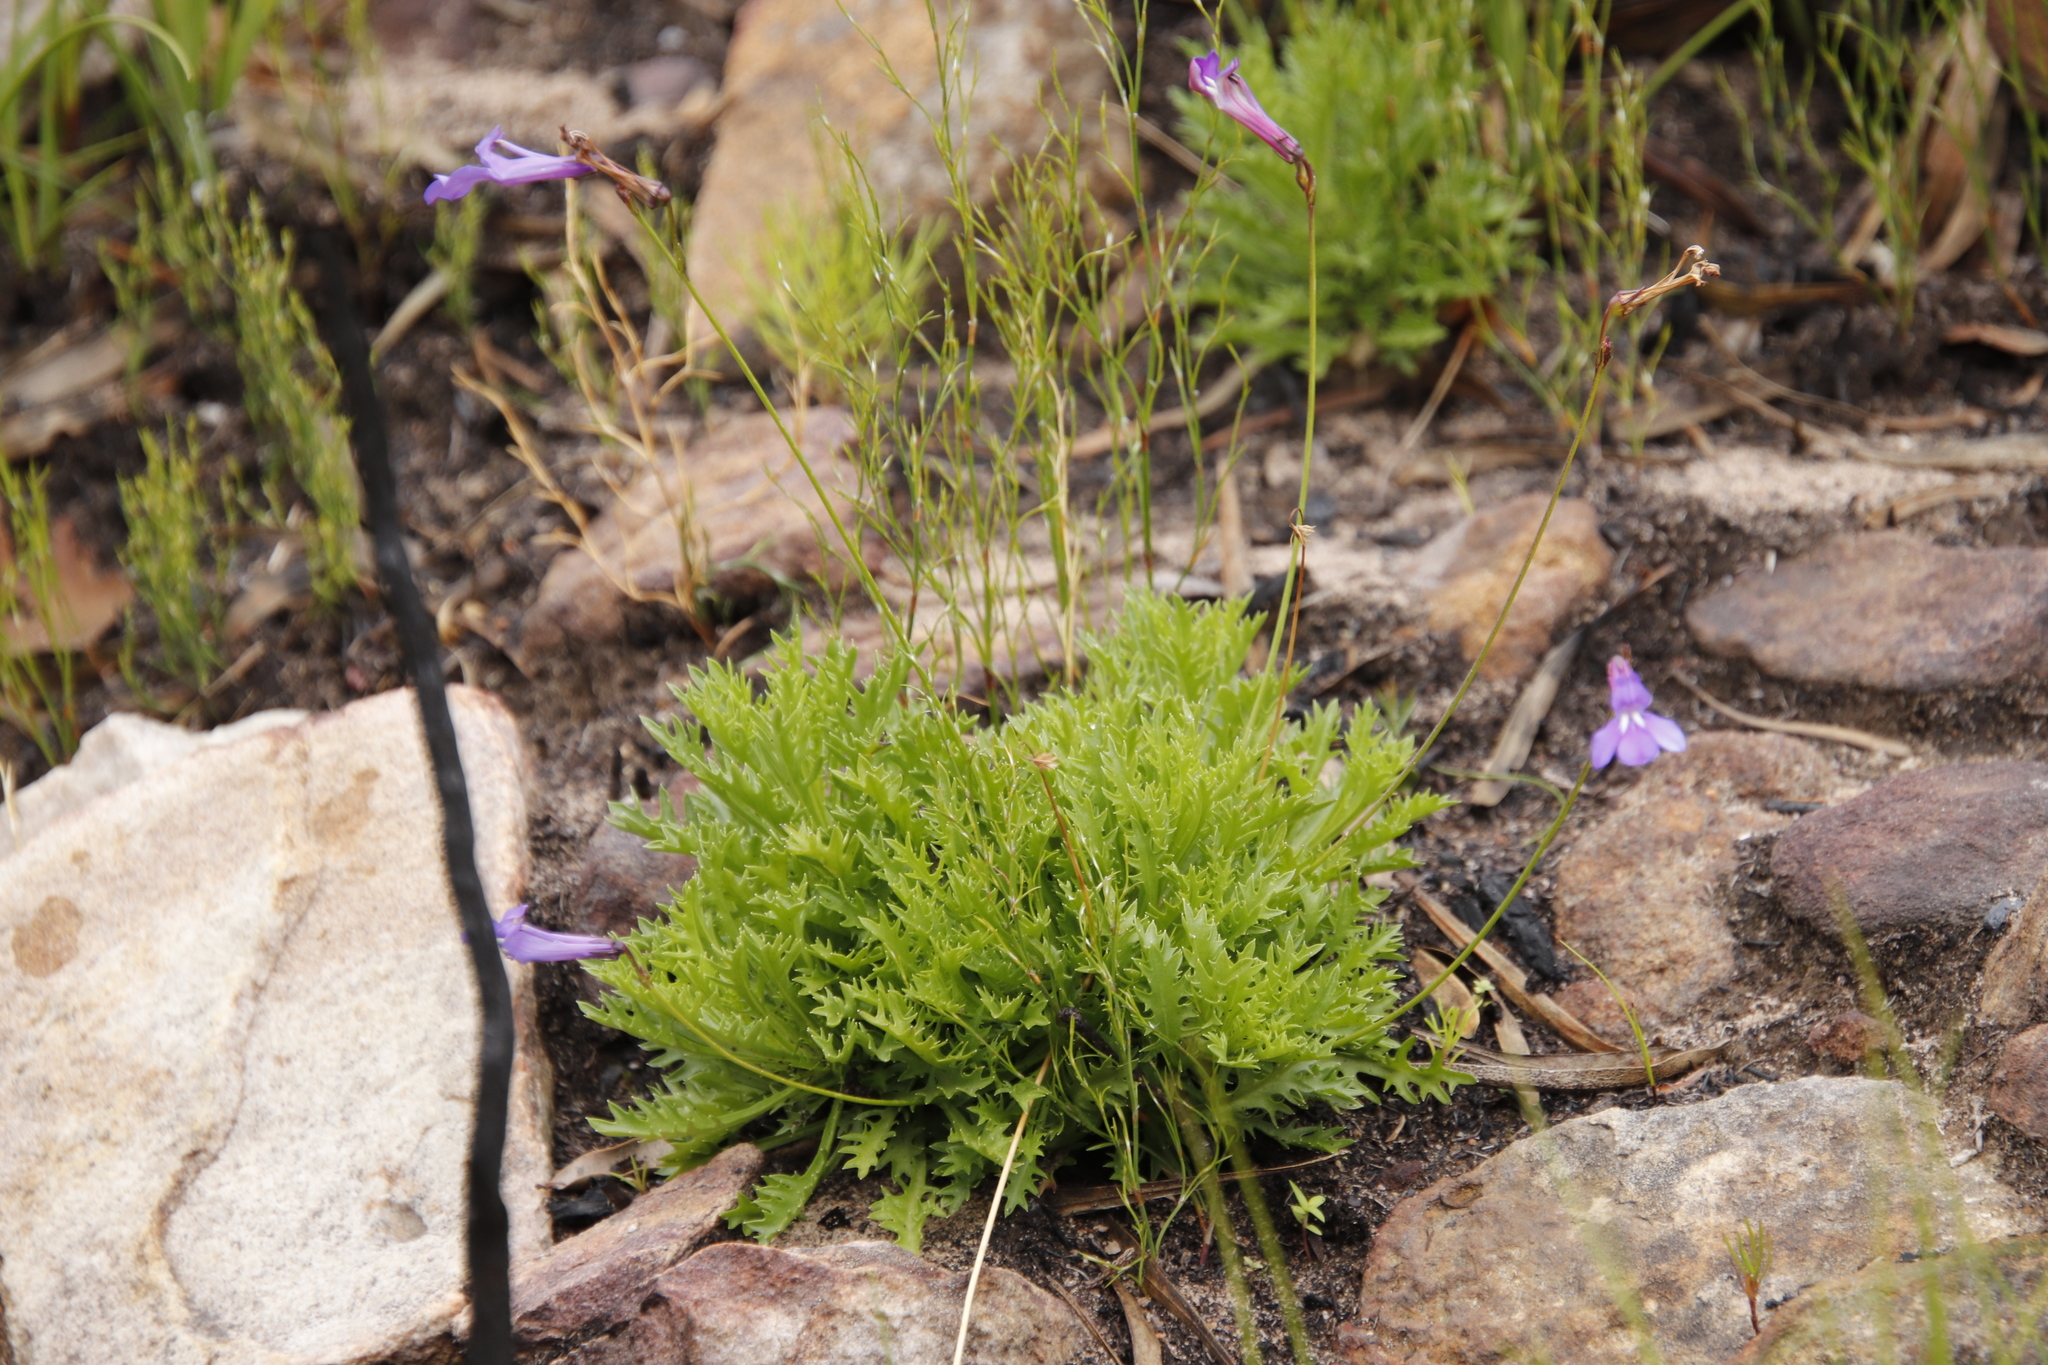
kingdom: Plantae
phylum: Tracheophyta
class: Magnoliopsida
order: Asterales
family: Campanulaceae
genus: Lobelia
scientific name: Lobelia coronopifolia
